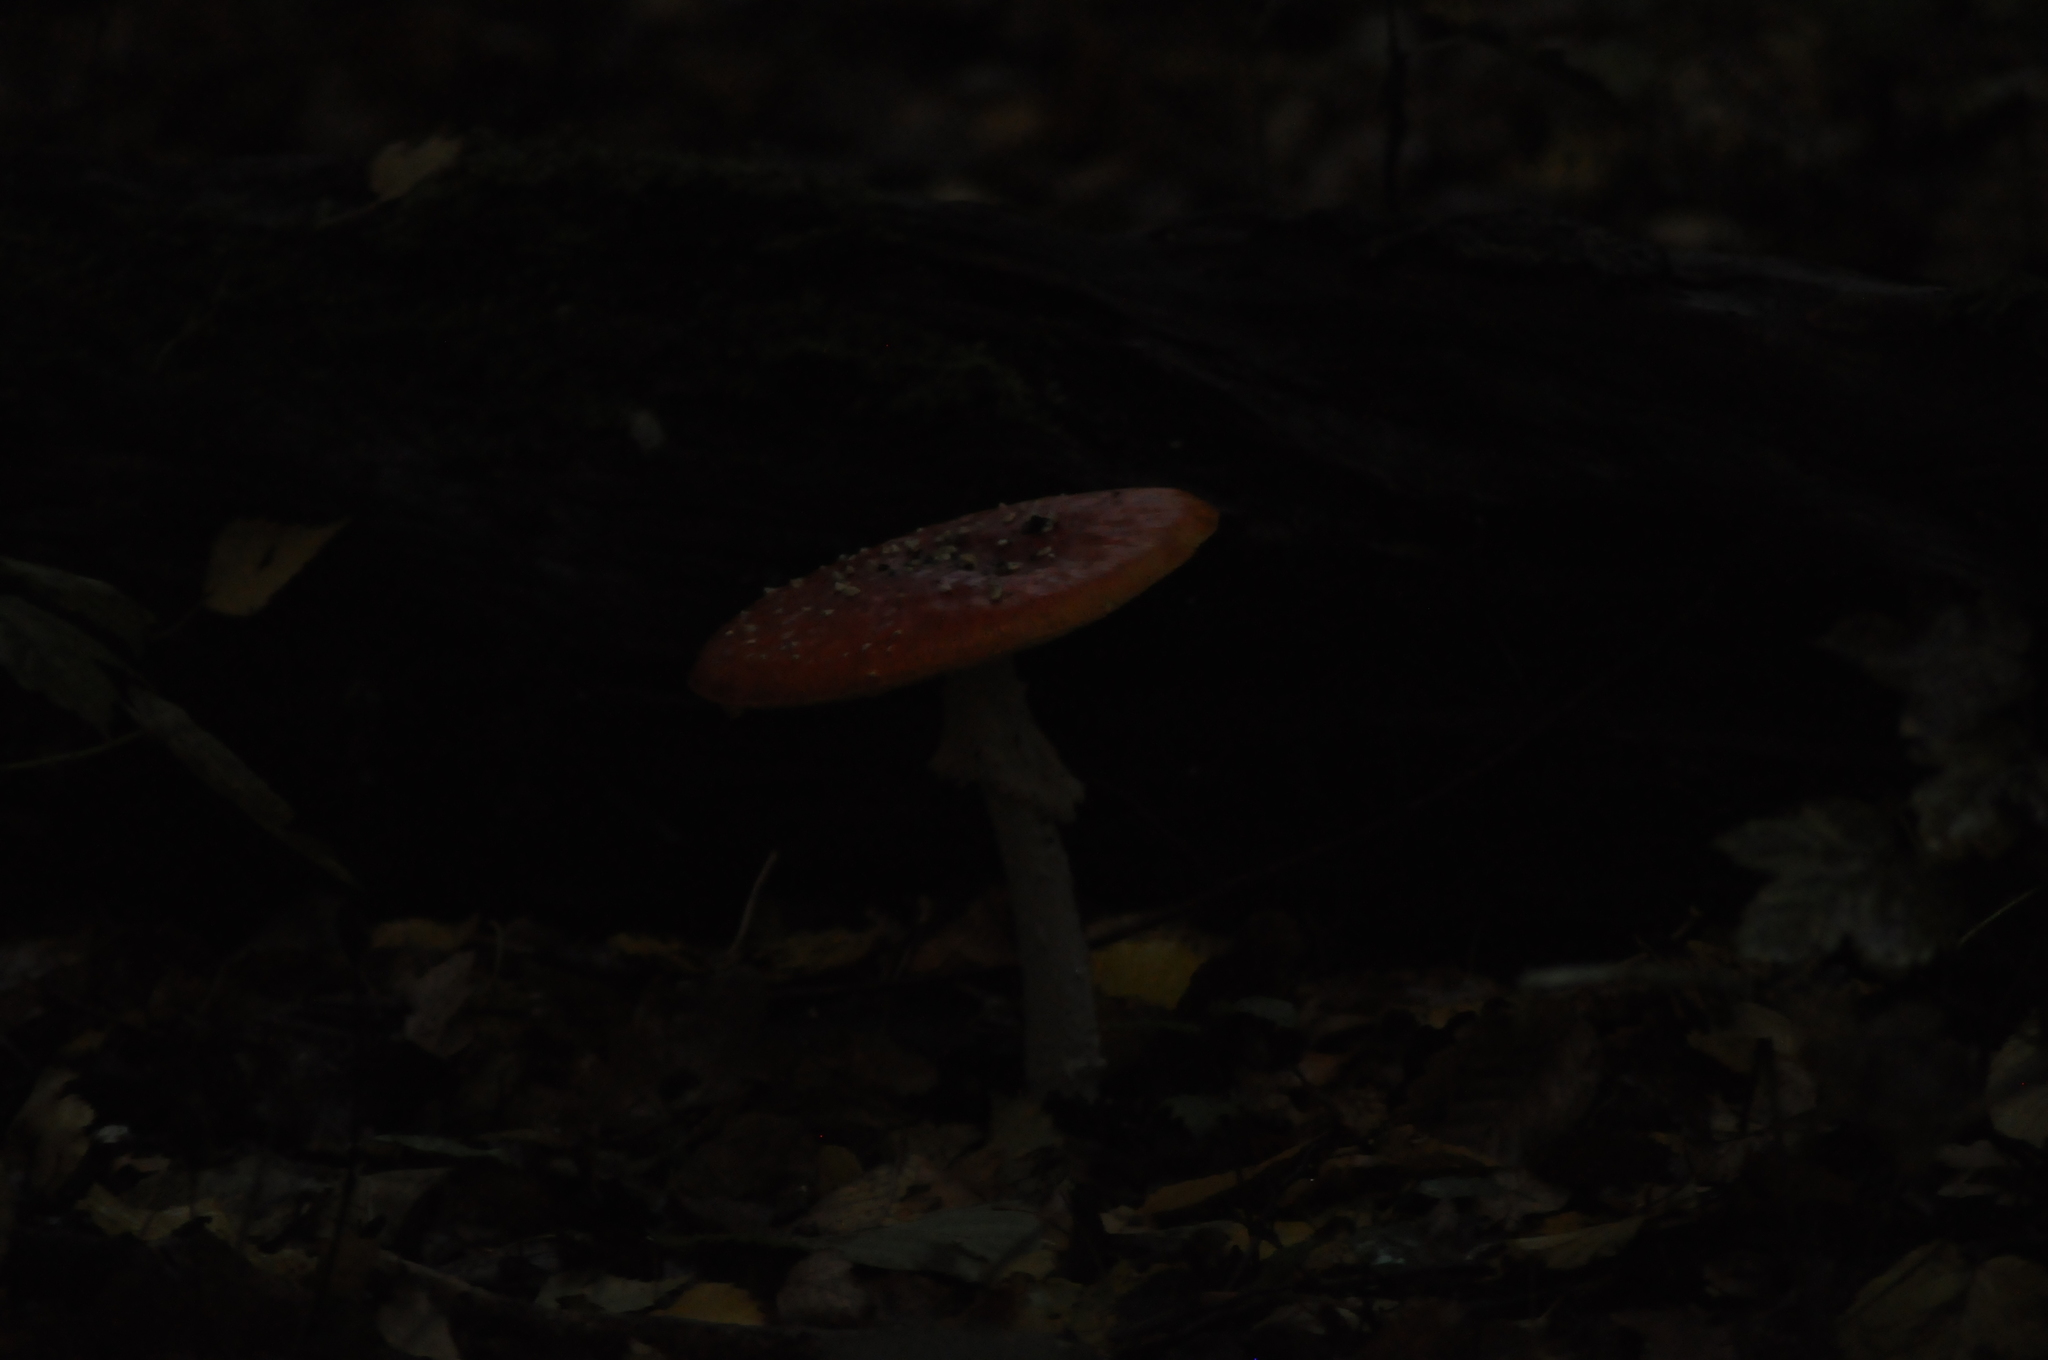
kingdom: Fungi
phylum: Basidiomycota
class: Agaricomycetes
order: Agaricales
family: Amanitaceae
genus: Amanita
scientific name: Amanita muscaria
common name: Fly agaric
